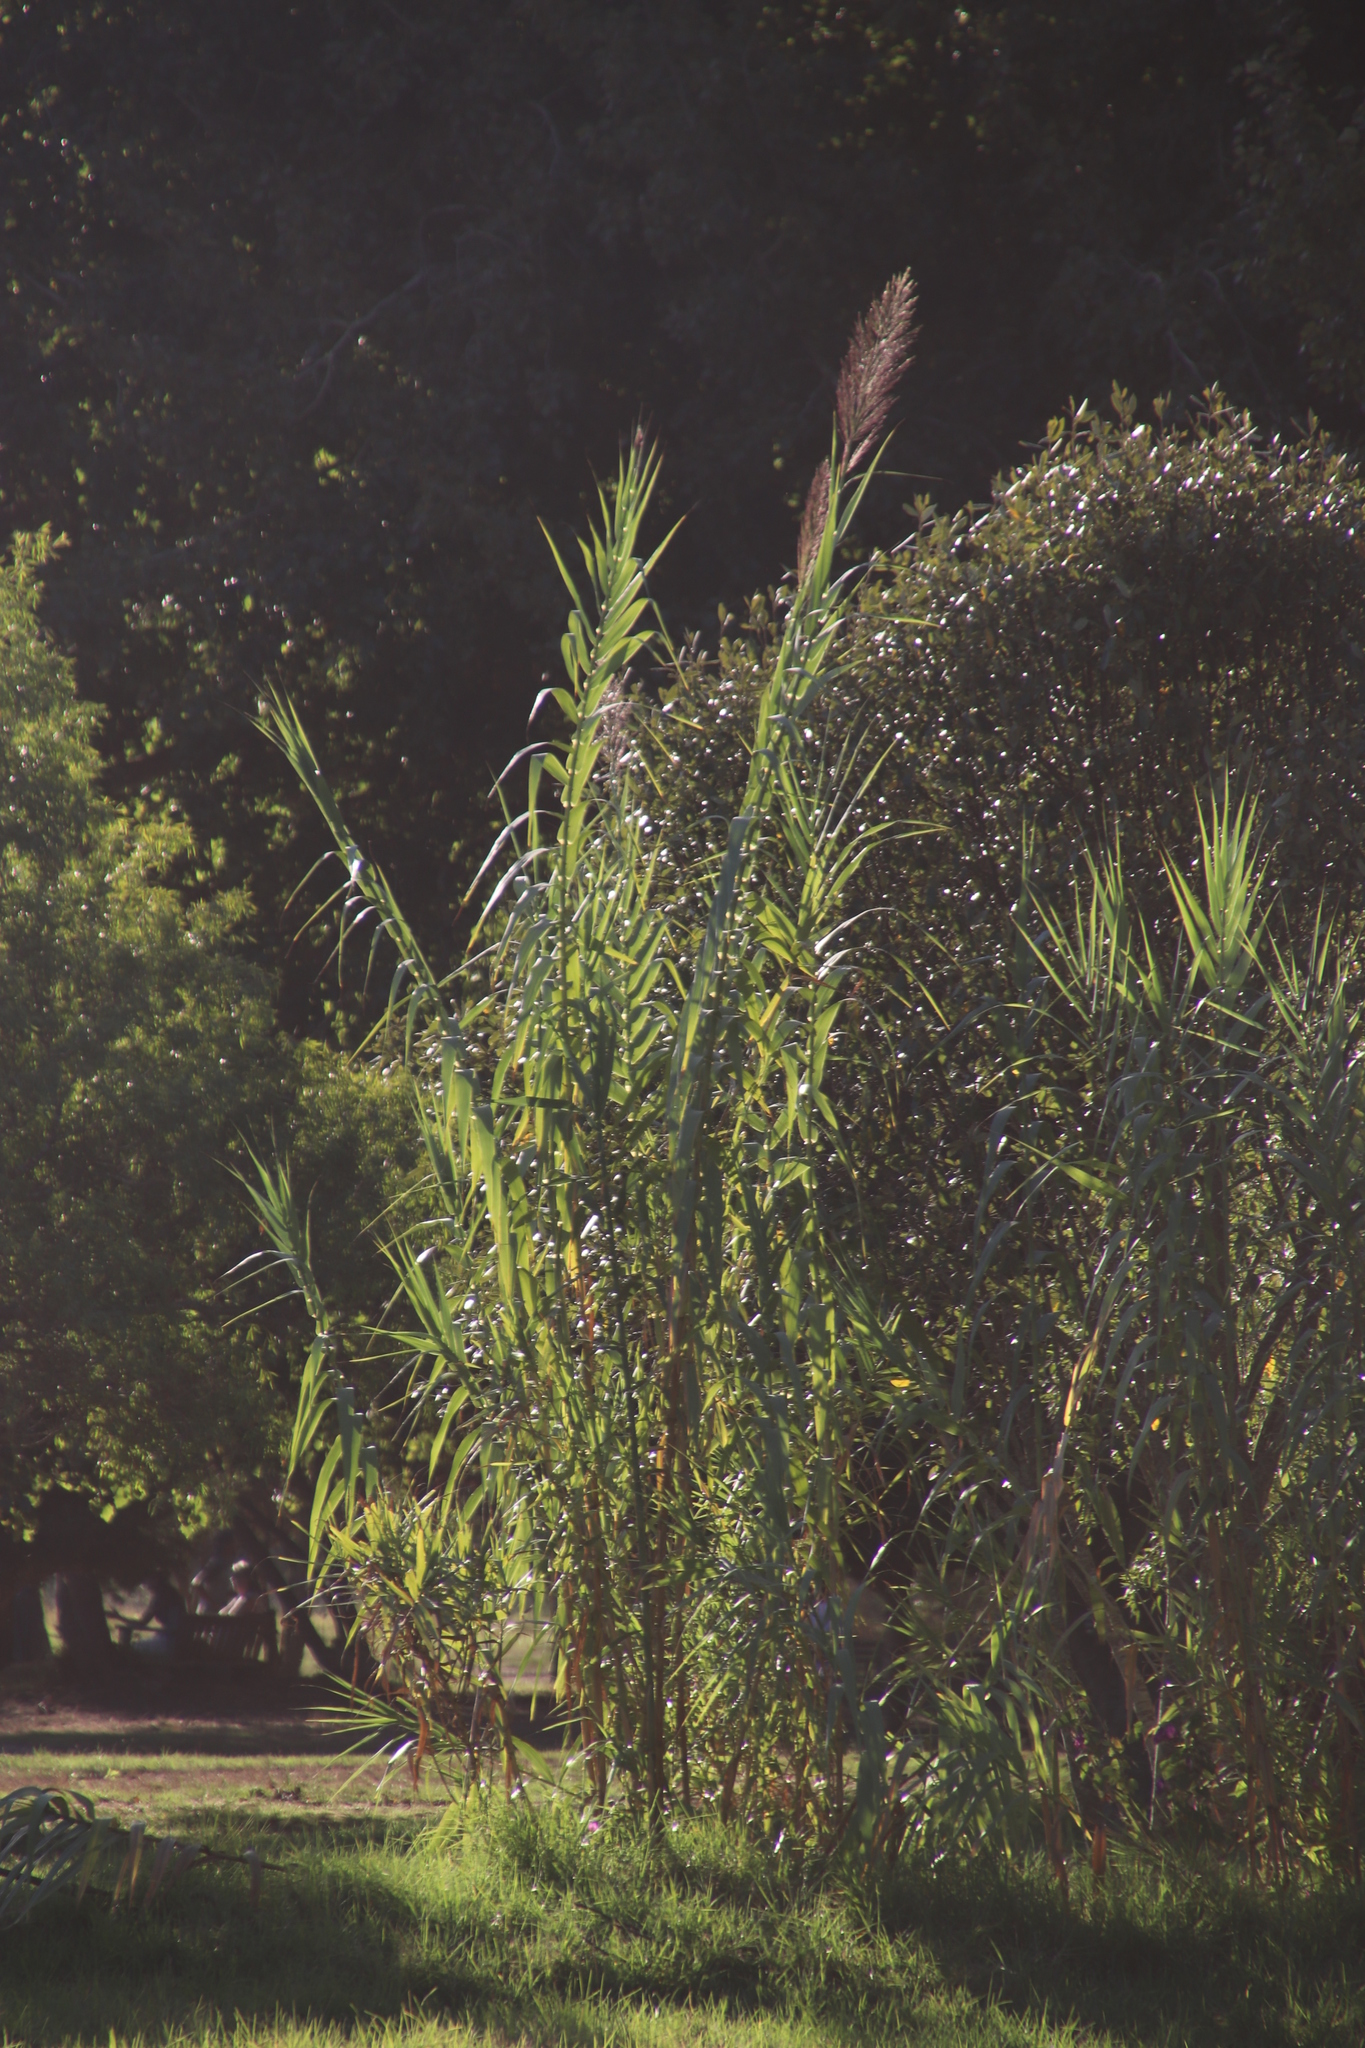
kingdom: Plantae
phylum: Tracheophyta
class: Liliopsida
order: Poales
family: Poaceae
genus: Arundo
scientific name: Arundo donax
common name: Giant reed
